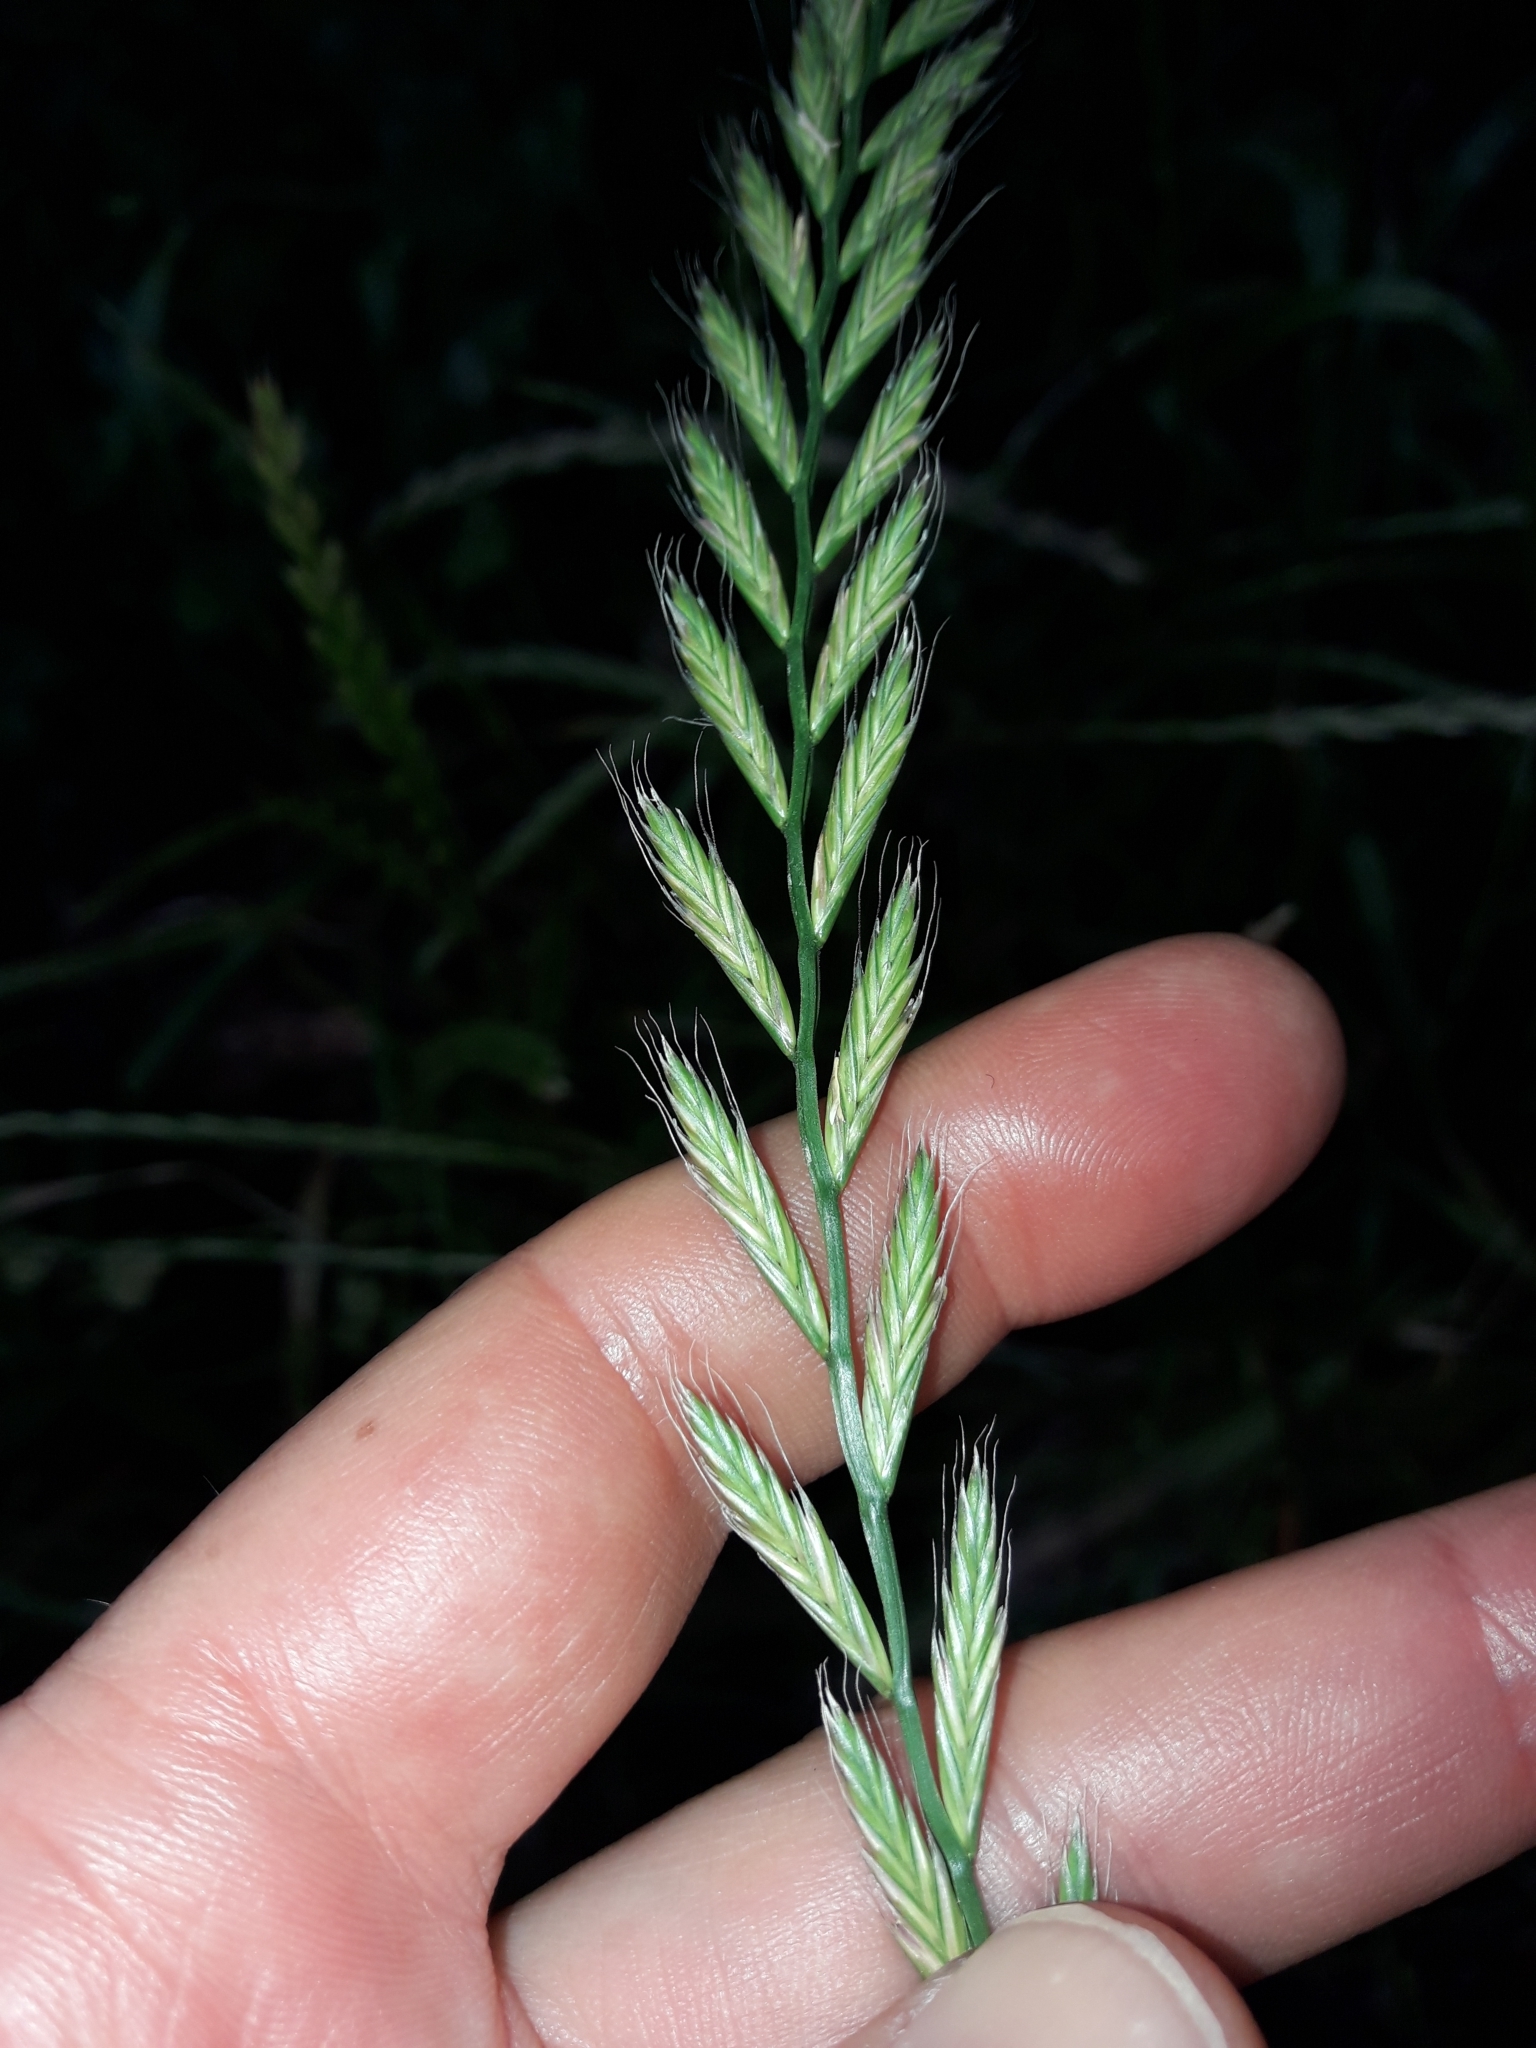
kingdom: Plantae
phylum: Tracheophyta
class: Liliopsida
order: Poales
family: Poaceae
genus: Lolium
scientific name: Lolium multiflorum
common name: Annual ryegrass
